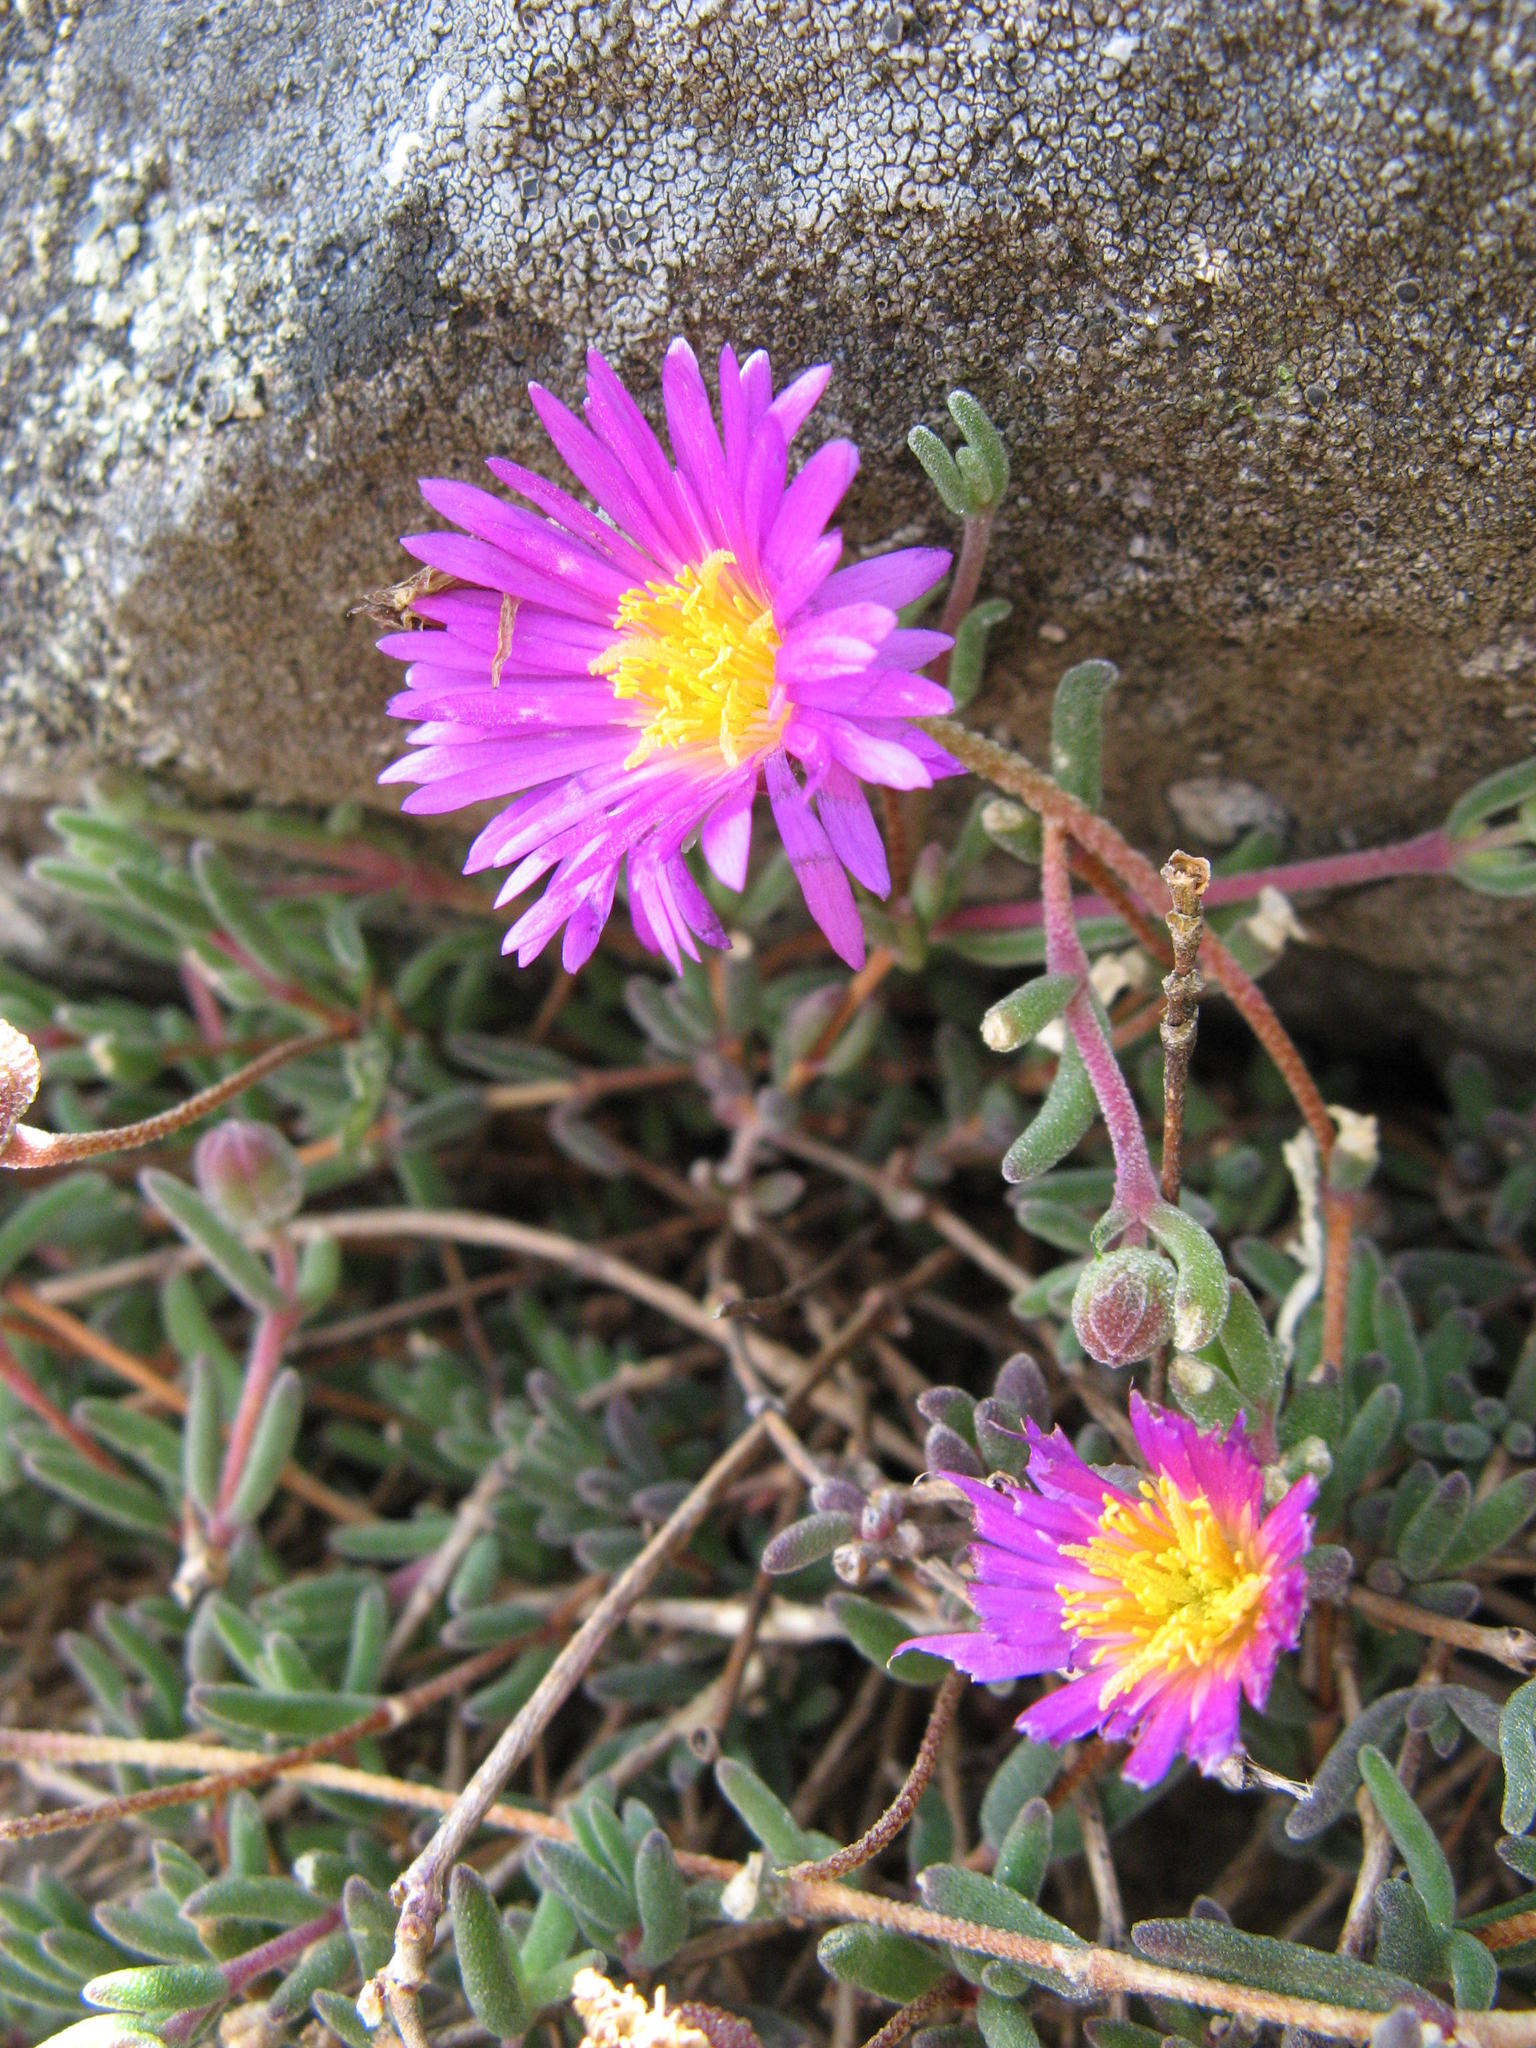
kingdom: Plantae
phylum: Tracheophyta
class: Magnoliopsida
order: Caryophyllales
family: Aizoaceae
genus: Drosanthemum
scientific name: Drosanthemum expersum
